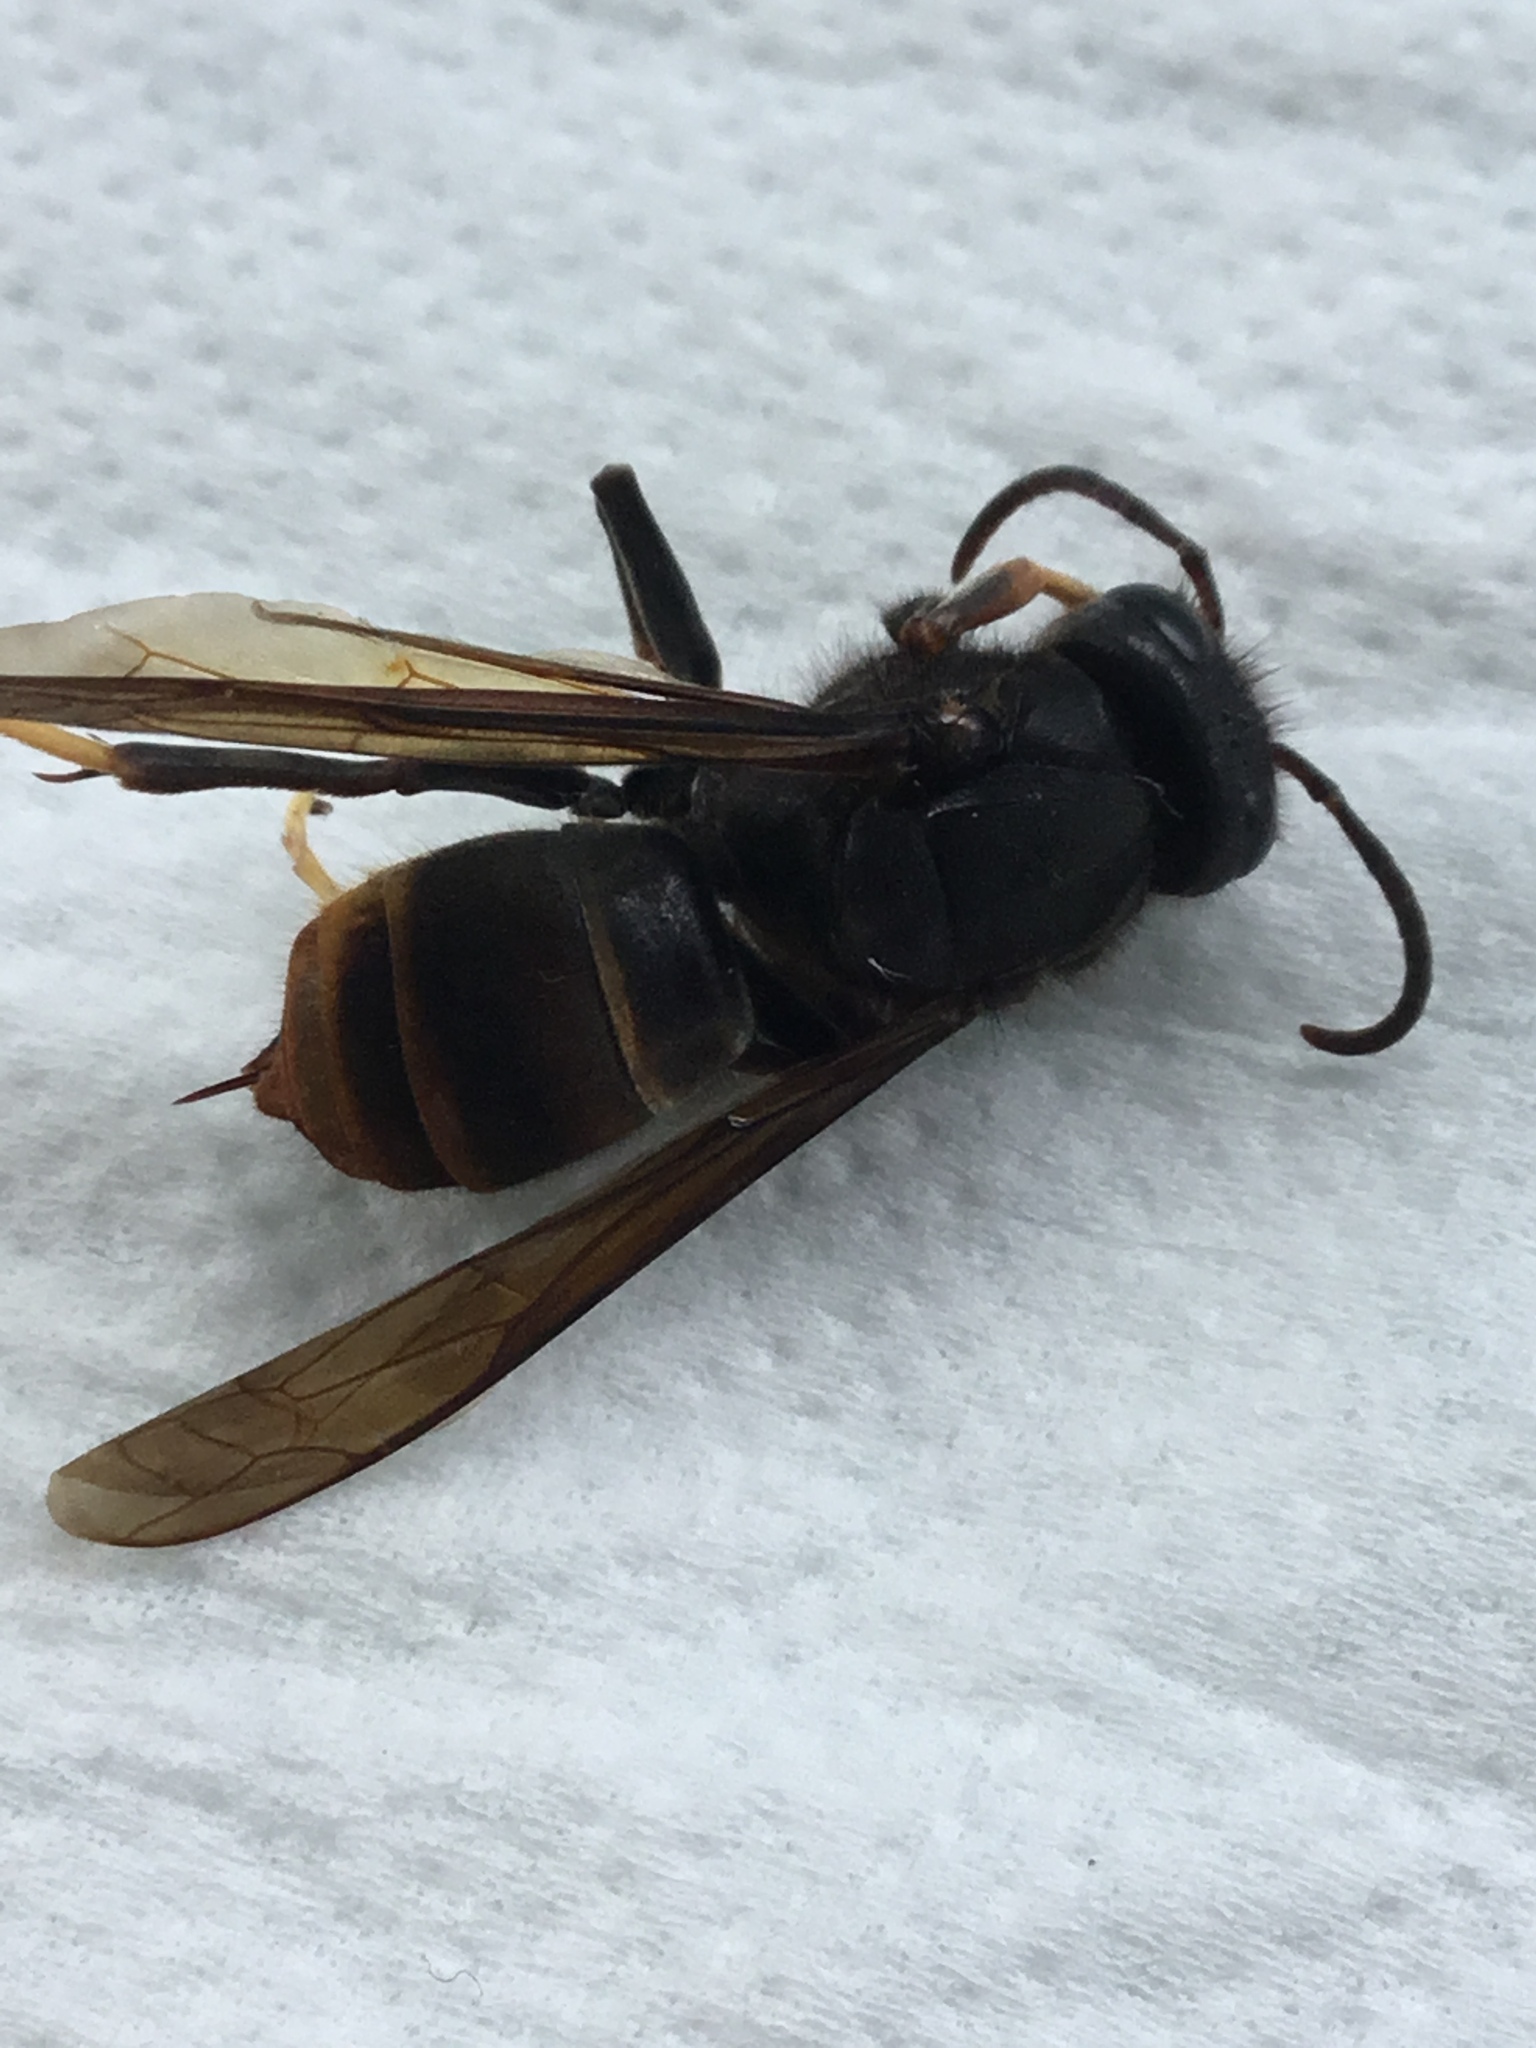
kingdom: Animalia
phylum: Arthropoda
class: Insecta
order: Hymenoptera
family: Vespidae
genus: Vespa
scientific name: Vespa velutina
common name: Asian hornet
